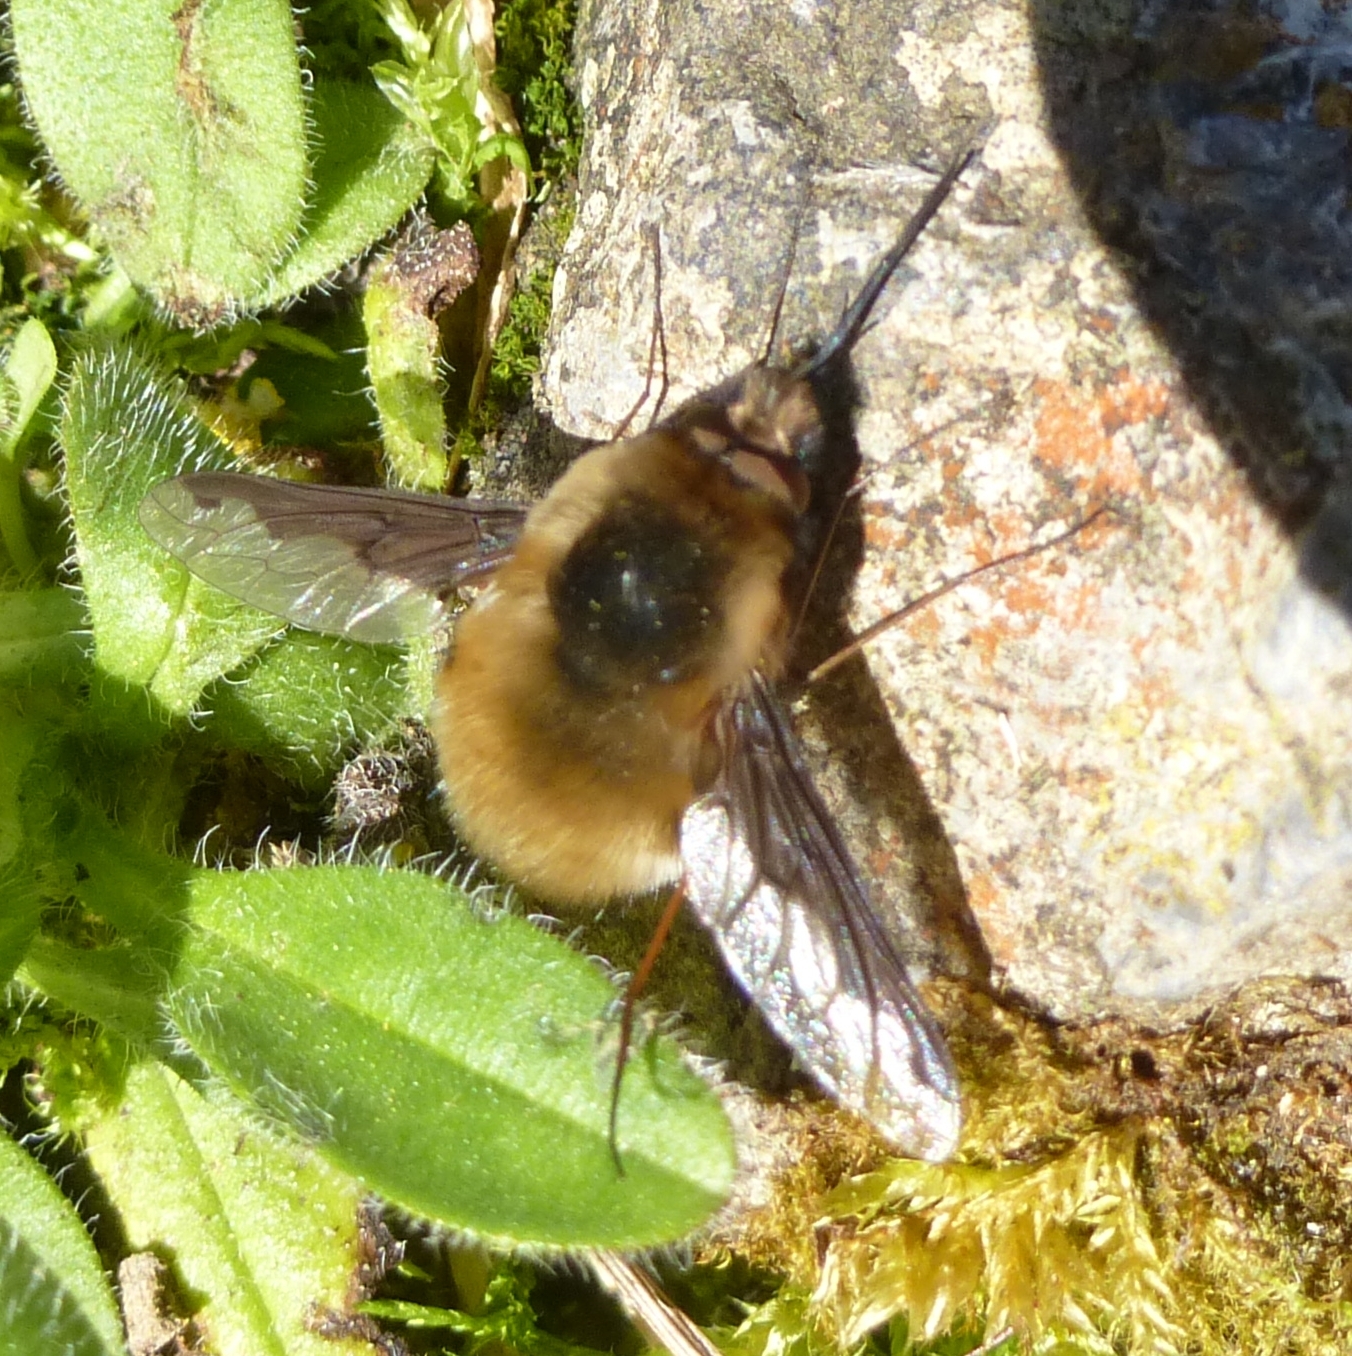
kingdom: Animalia
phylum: Arthropoda
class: Insecta
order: Diptera
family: Bombyliidae
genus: Bombylius
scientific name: Bombylius major
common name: Bee fly
